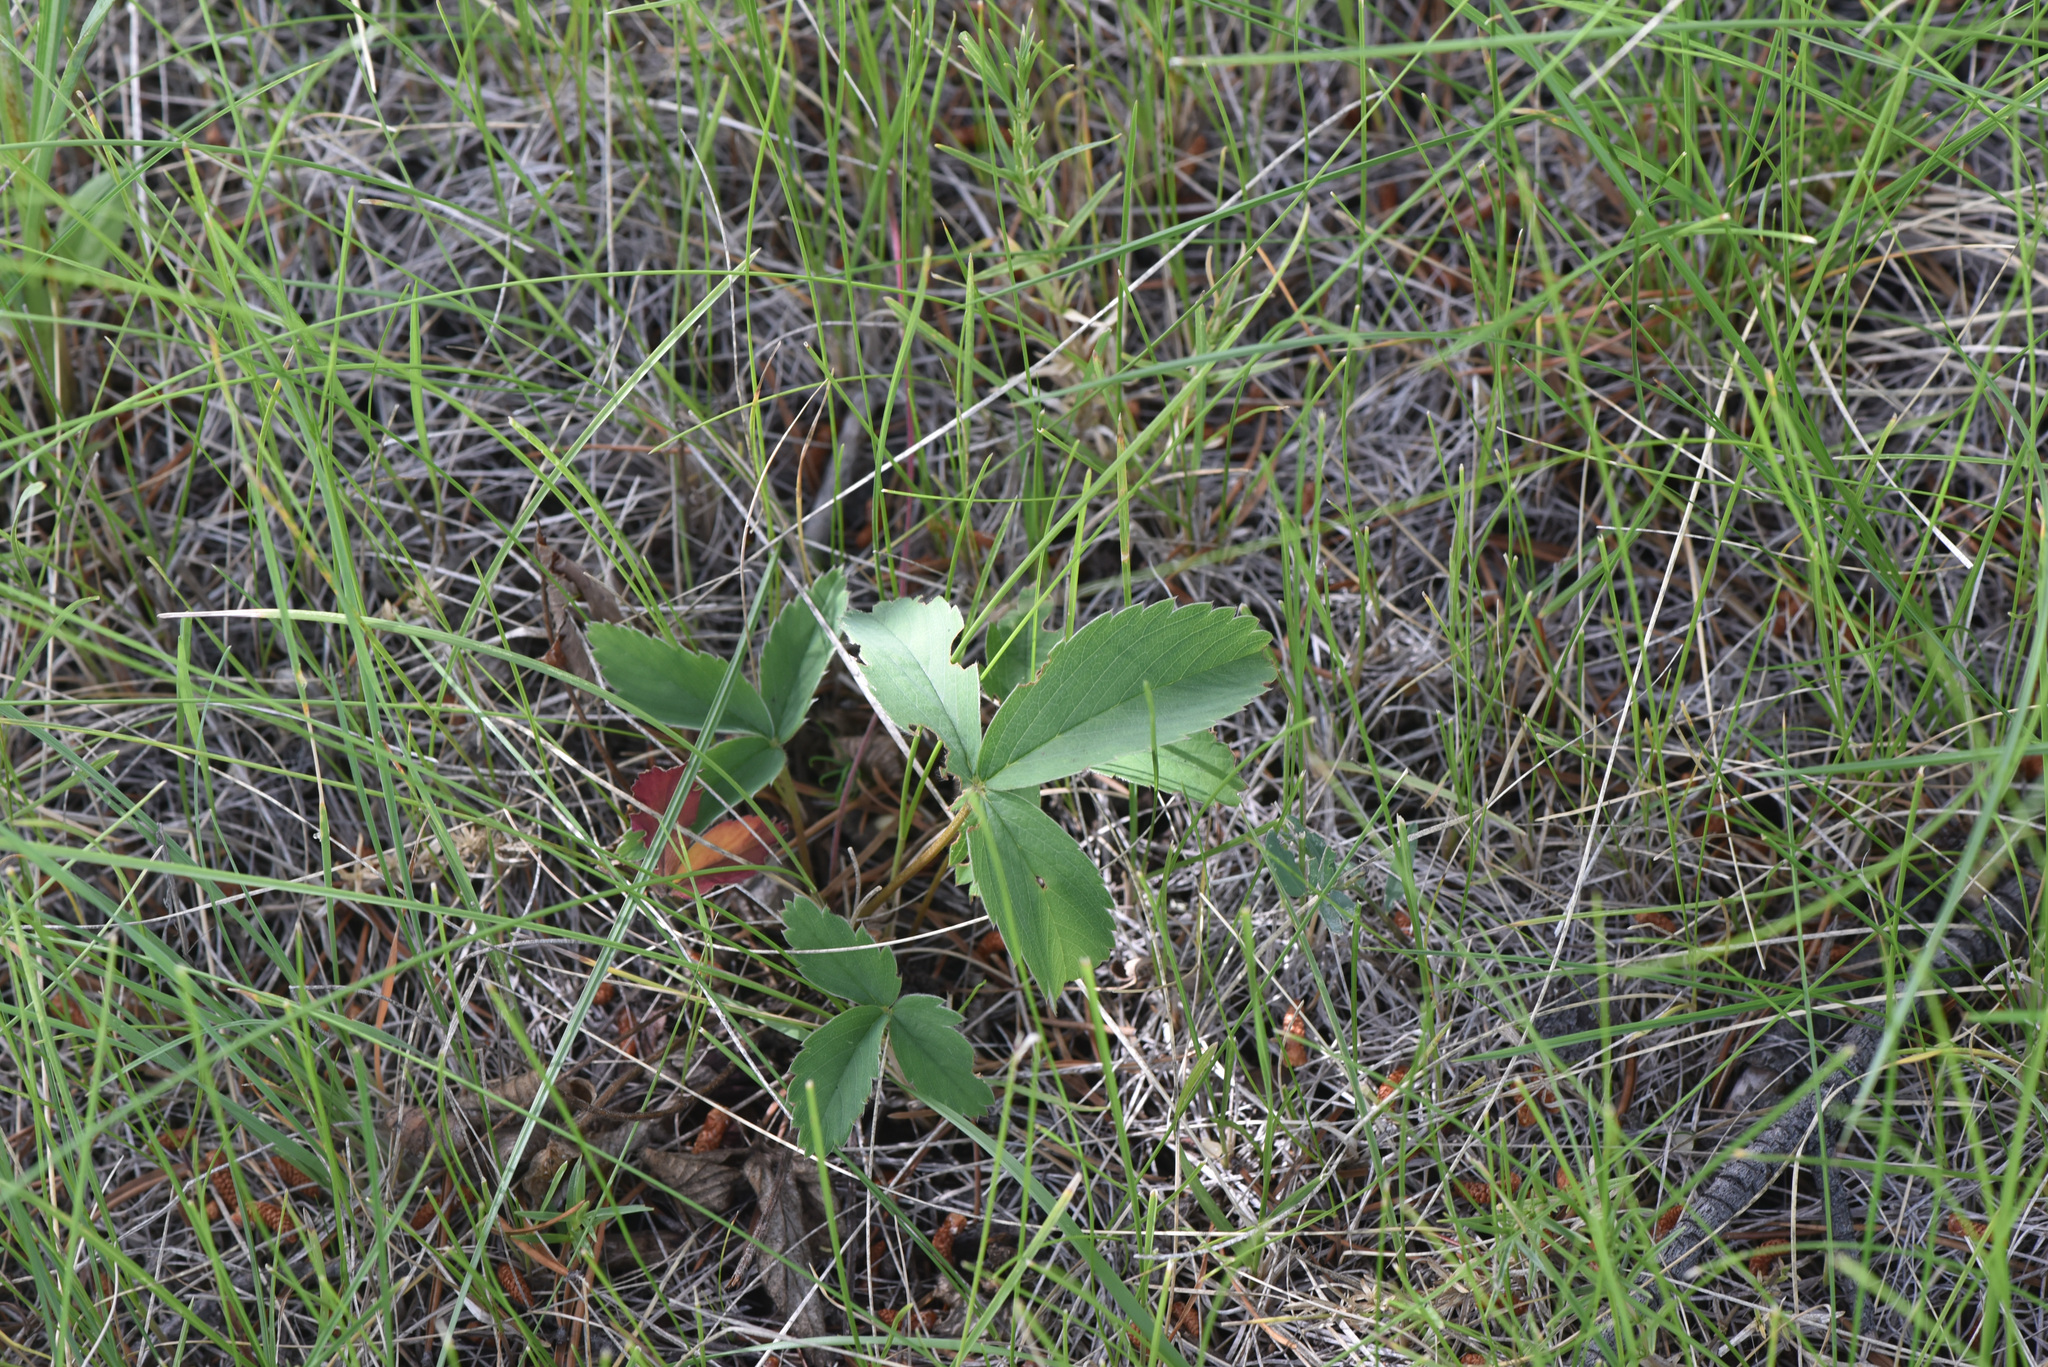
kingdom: Plantae
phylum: Tracheophyta
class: Magnoliopsida
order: Rosales
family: Rosaceae
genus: Fragaria
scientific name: Fragaria virginiana
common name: Thickleaved wild strawberry
